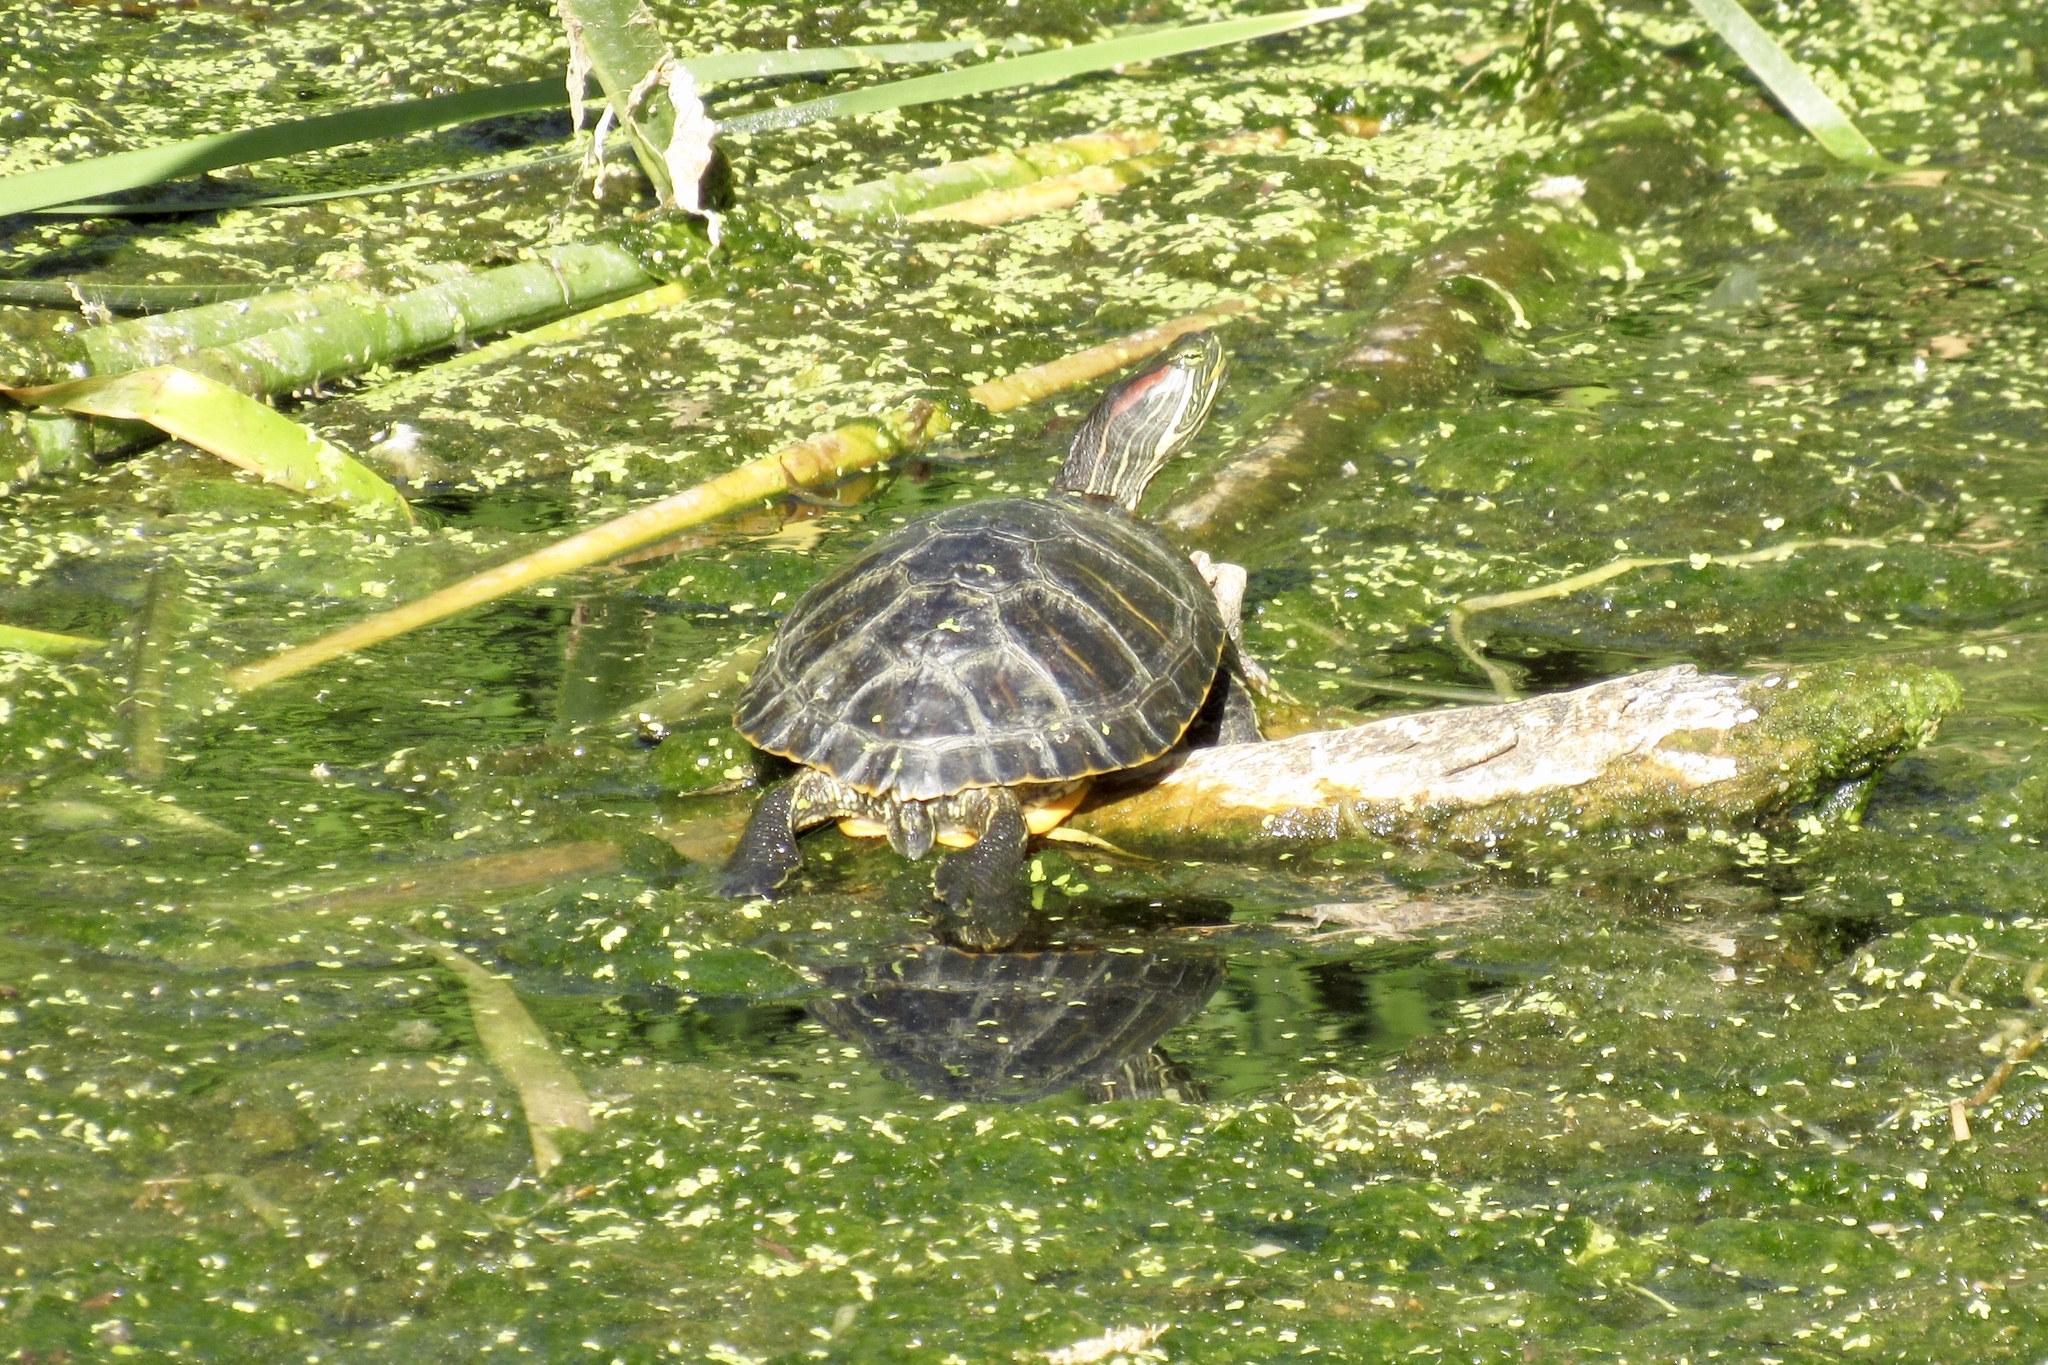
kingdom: Animalia
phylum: Chordata
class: Testudines
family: Emydidae
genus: Trachemys
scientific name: Trachemys scripta
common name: Slider
